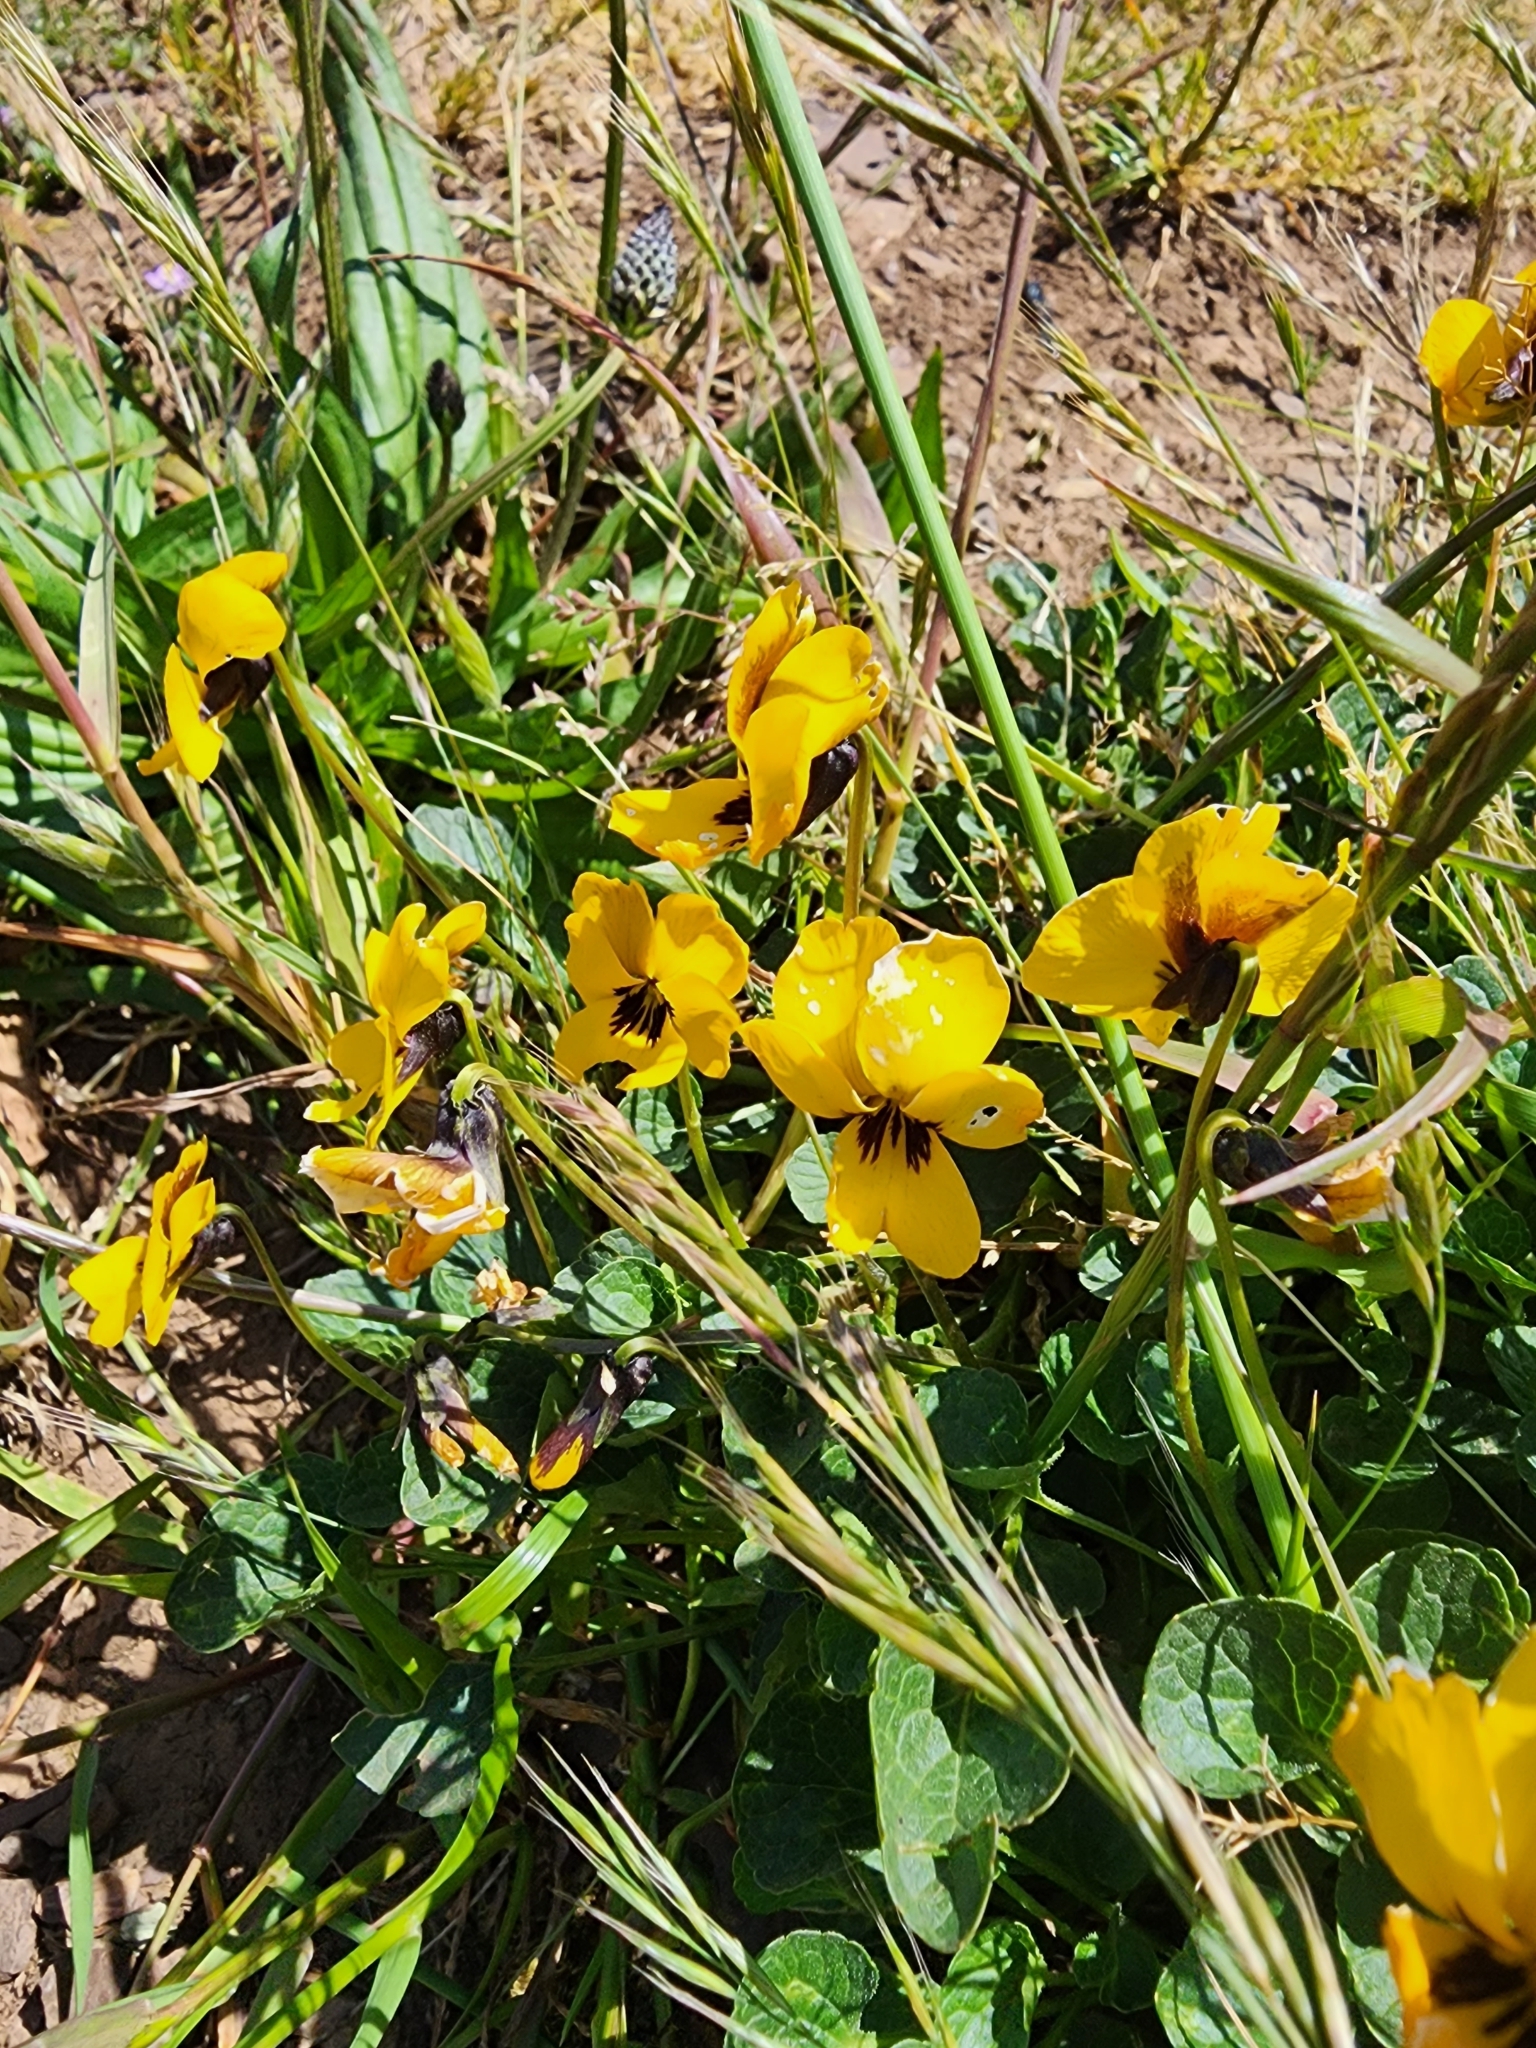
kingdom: Plantae
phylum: Tracheophyta
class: Magnoliopsida
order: Malpighiales
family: Violaceae
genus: Viola
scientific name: Viola pedunculata
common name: California golden violet
